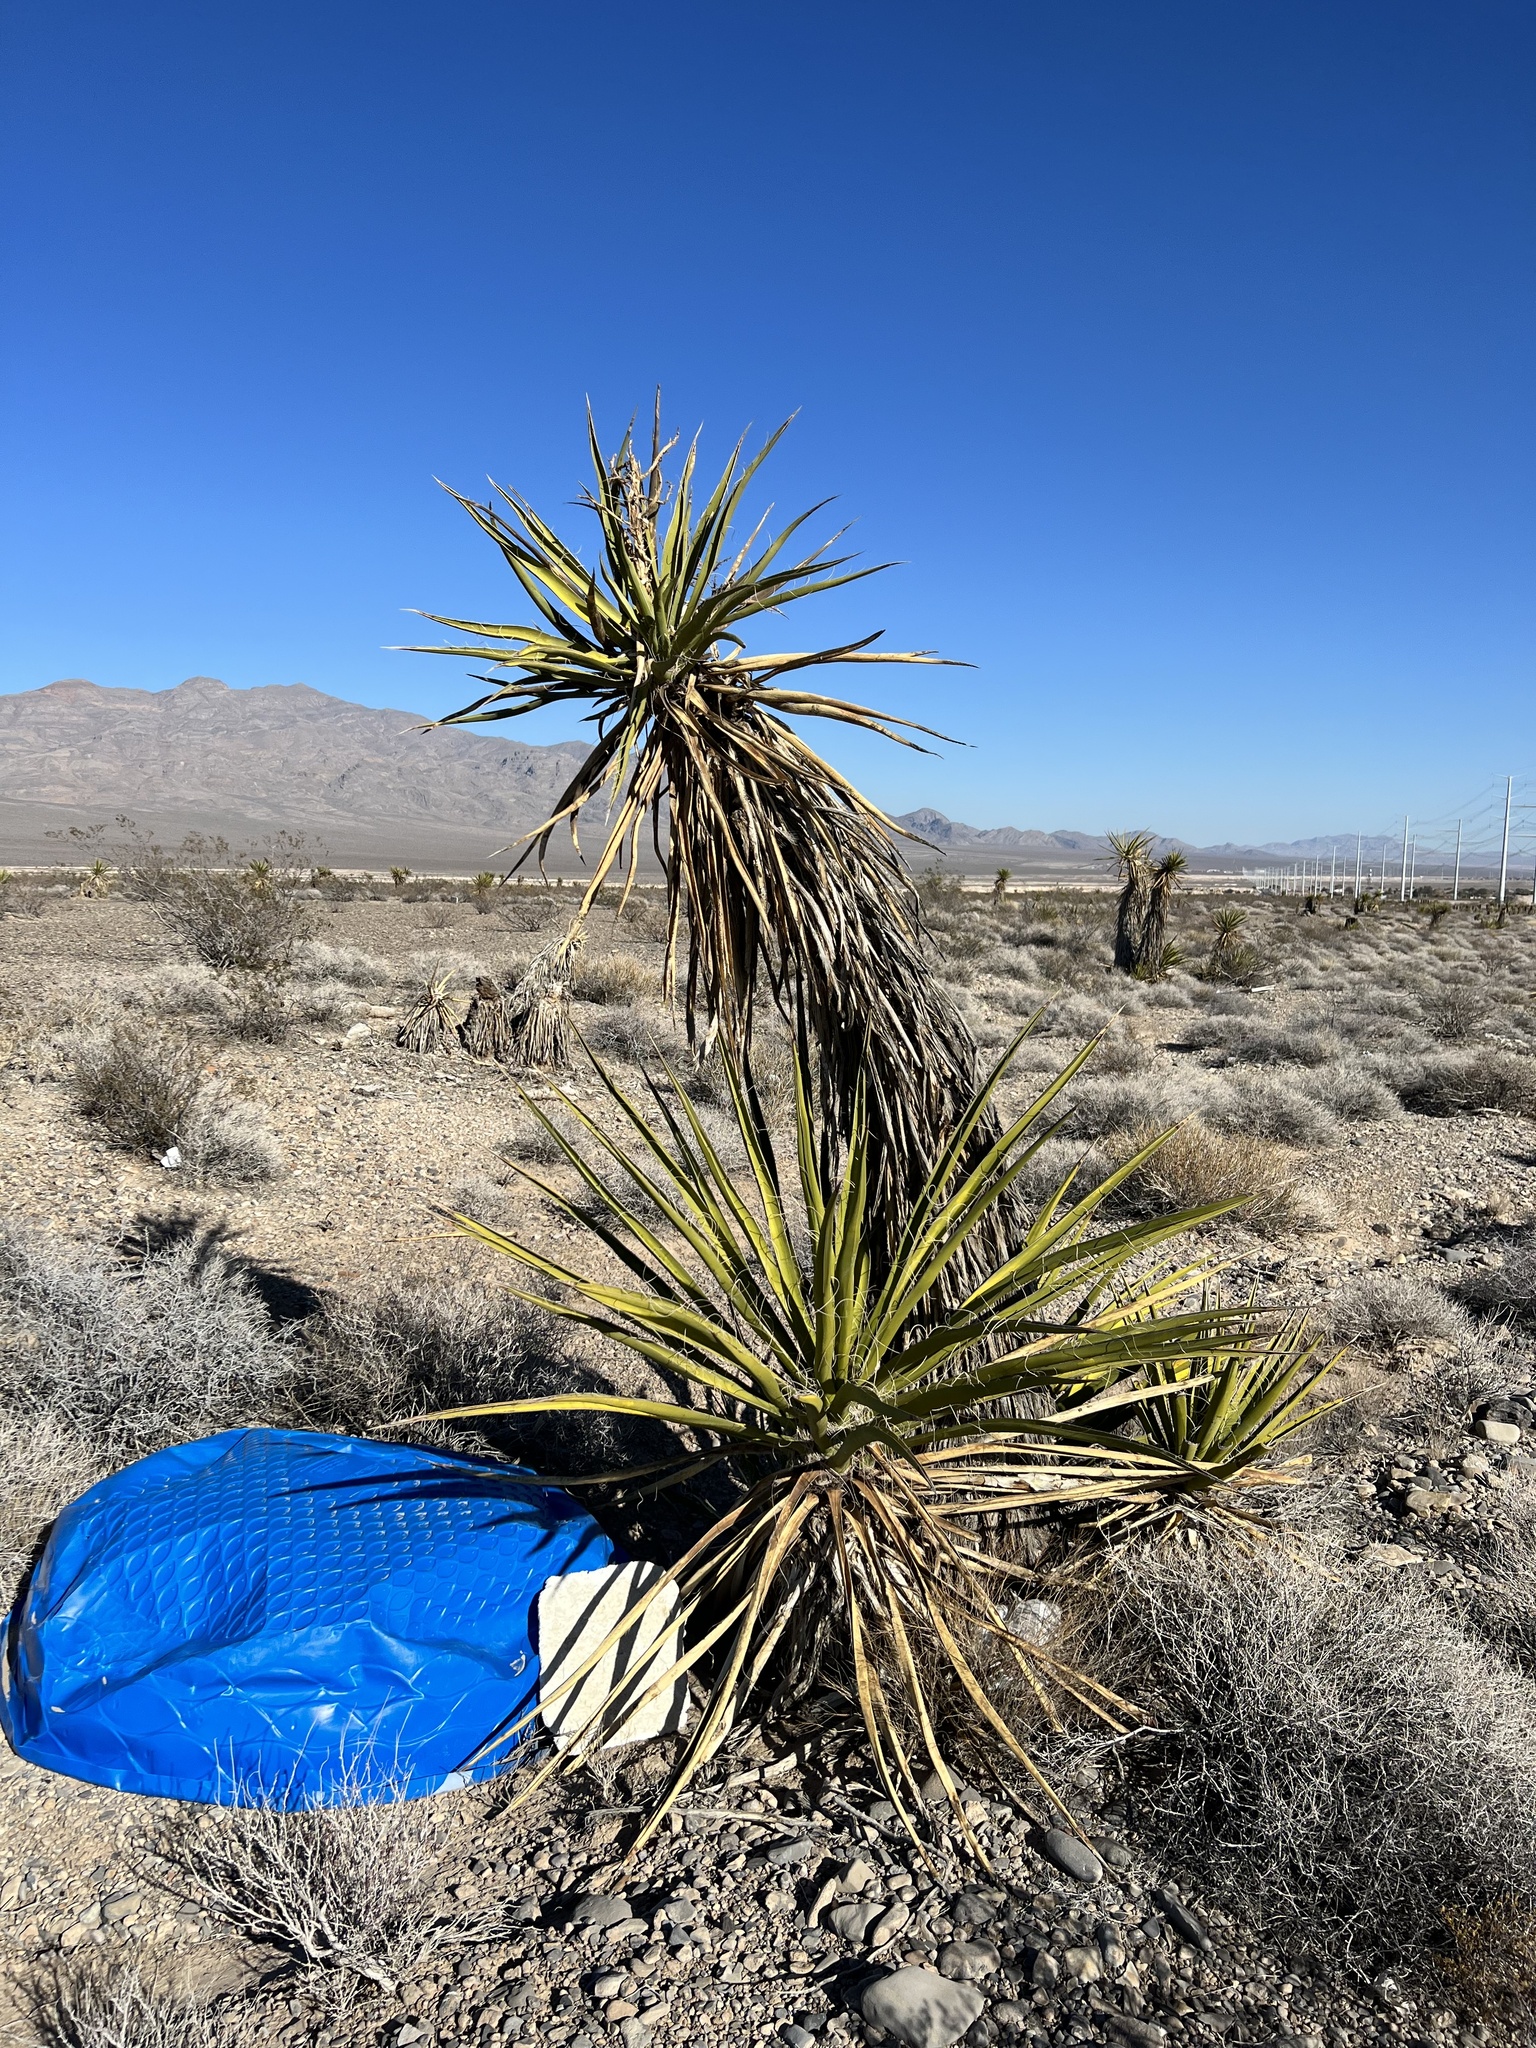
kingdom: Plantae
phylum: Tracheophyta
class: Liliopsida
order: Asparagales
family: Asparagaceae
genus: Yucca
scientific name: Yucca schidigera
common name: Mojave yucca
